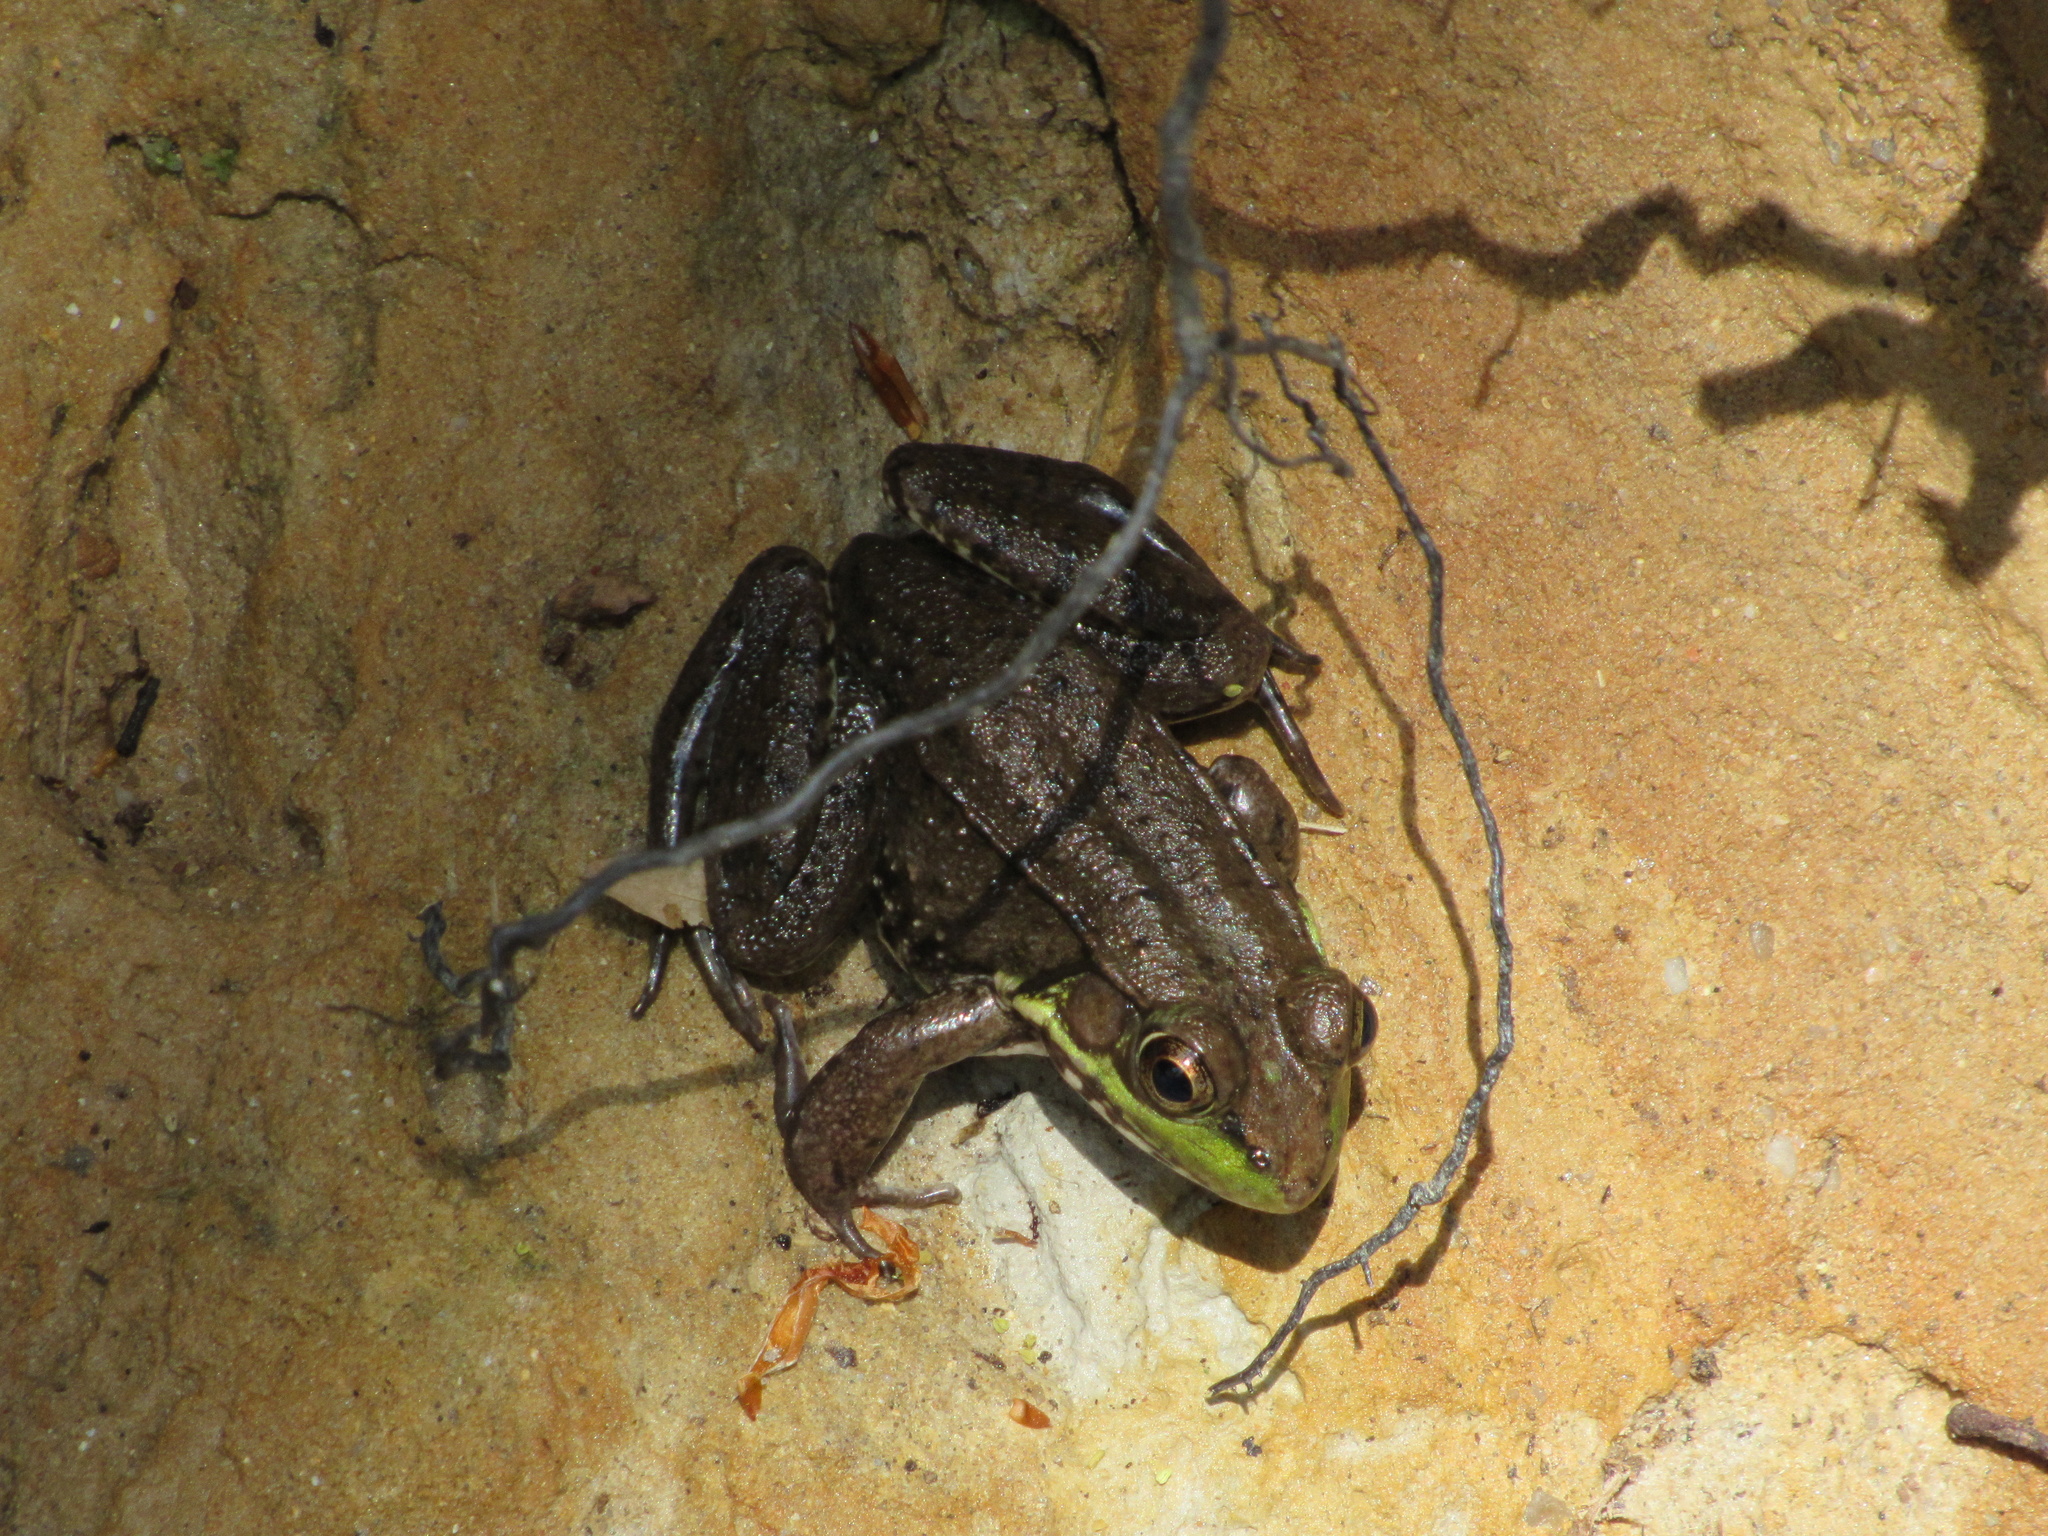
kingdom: Animalia
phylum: Chordata
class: Amphibia
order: Anura
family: Ranidae
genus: Lithobates
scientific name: Lithobates clamitans
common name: Green frog
